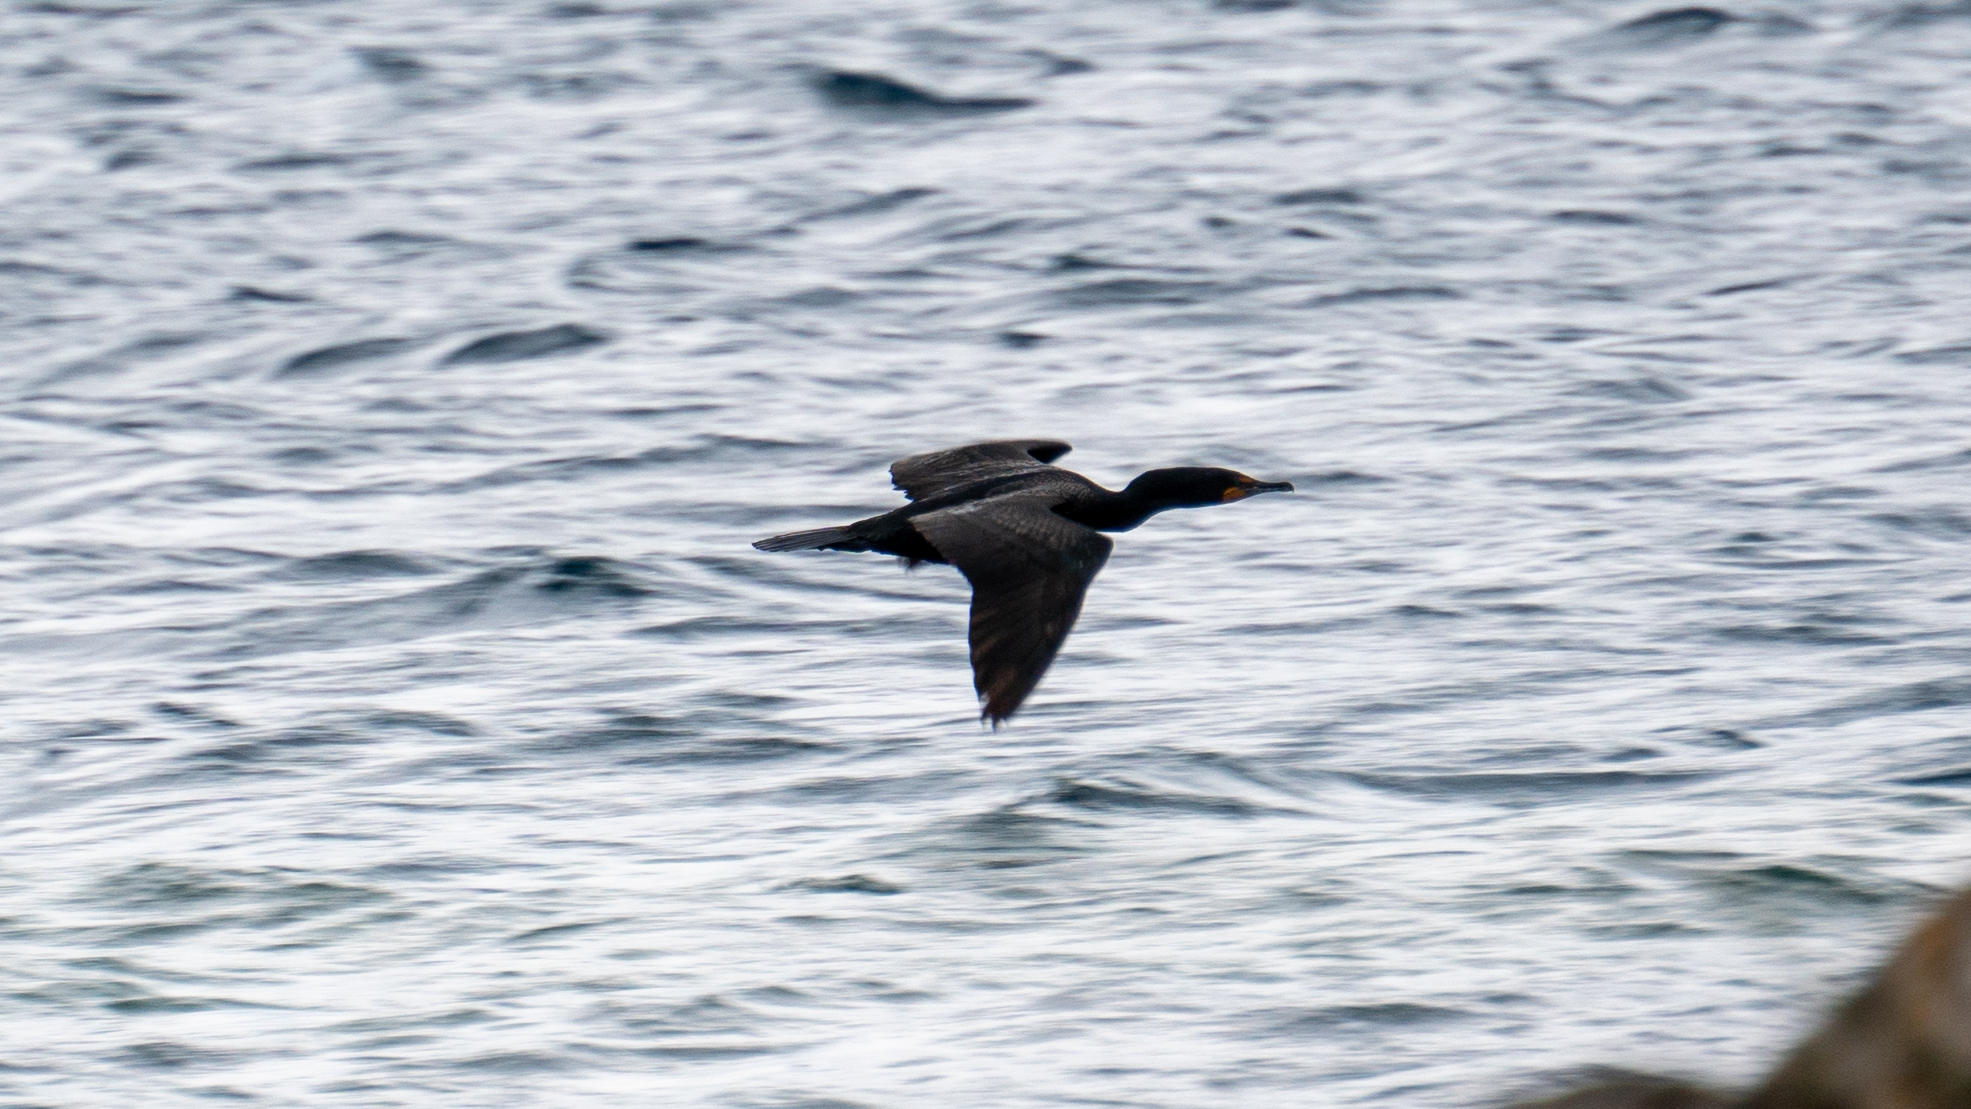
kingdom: Animalia
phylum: Chordata
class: Aves
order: Suliformes
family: Phalacrocoracidae
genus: Phalacrocorax
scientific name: Phalacrocorax auritus
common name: Double-crested cormorant
